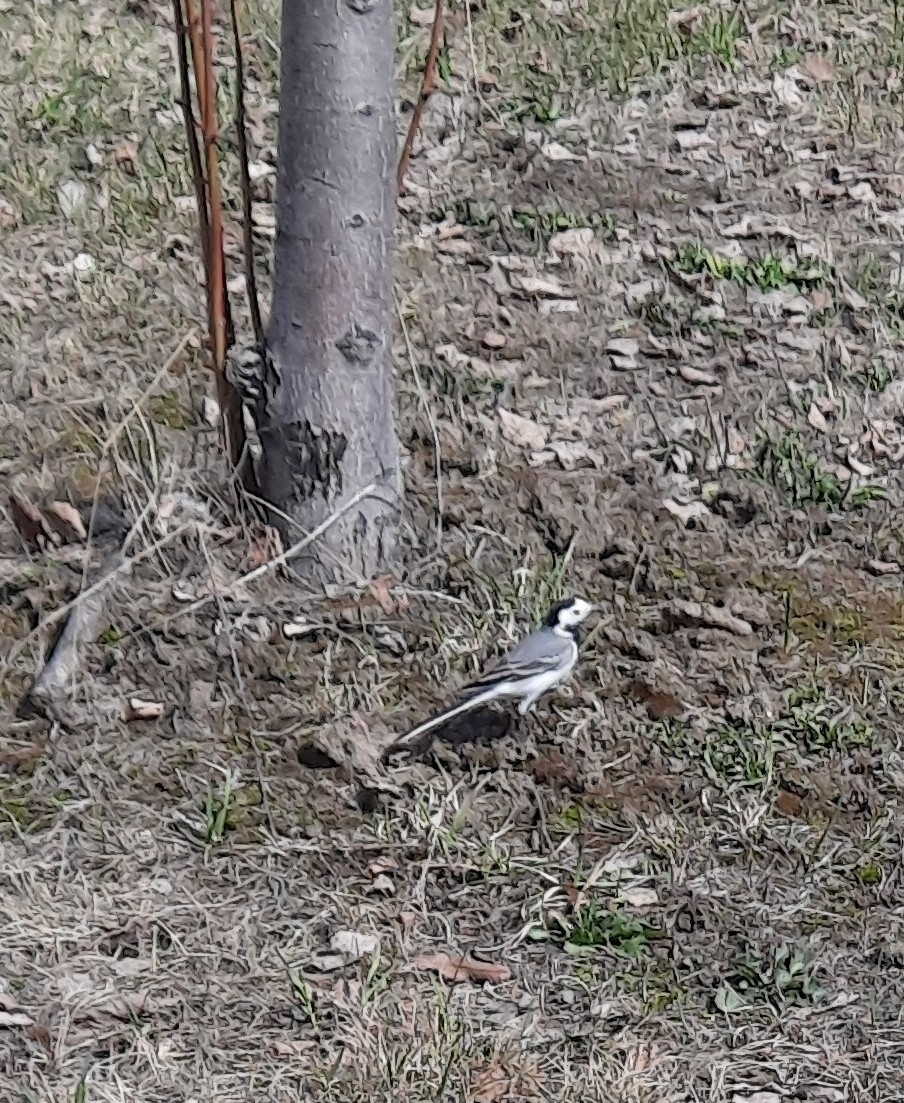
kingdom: Animalia
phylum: Chordata
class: Aves
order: Passeriformes
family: Motacillidae
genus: Motacilla
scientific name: Motacilla alba
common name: White wagtail
